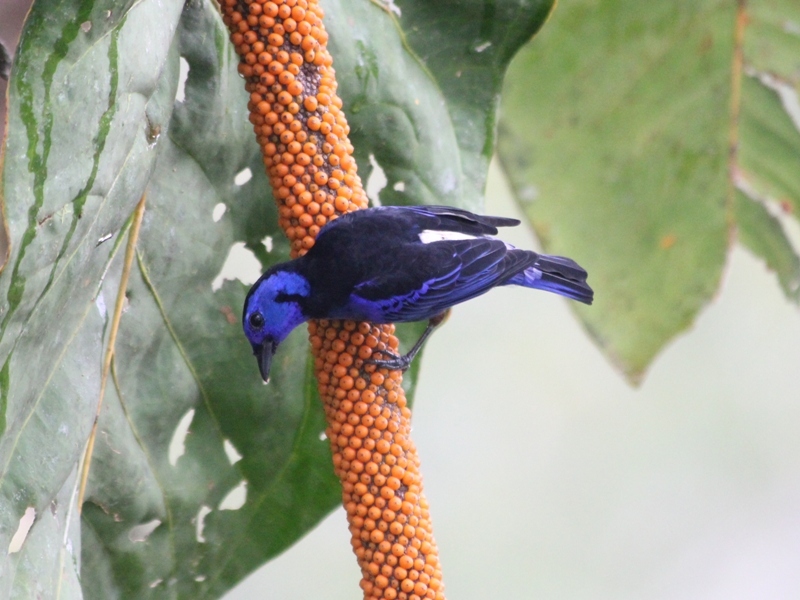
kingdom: Animalia
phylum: Chordata
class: Aves
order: Passeriformes
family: Thraupidae
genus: Tangara
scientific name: Tangara velia
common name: Opal-rumped tanager
